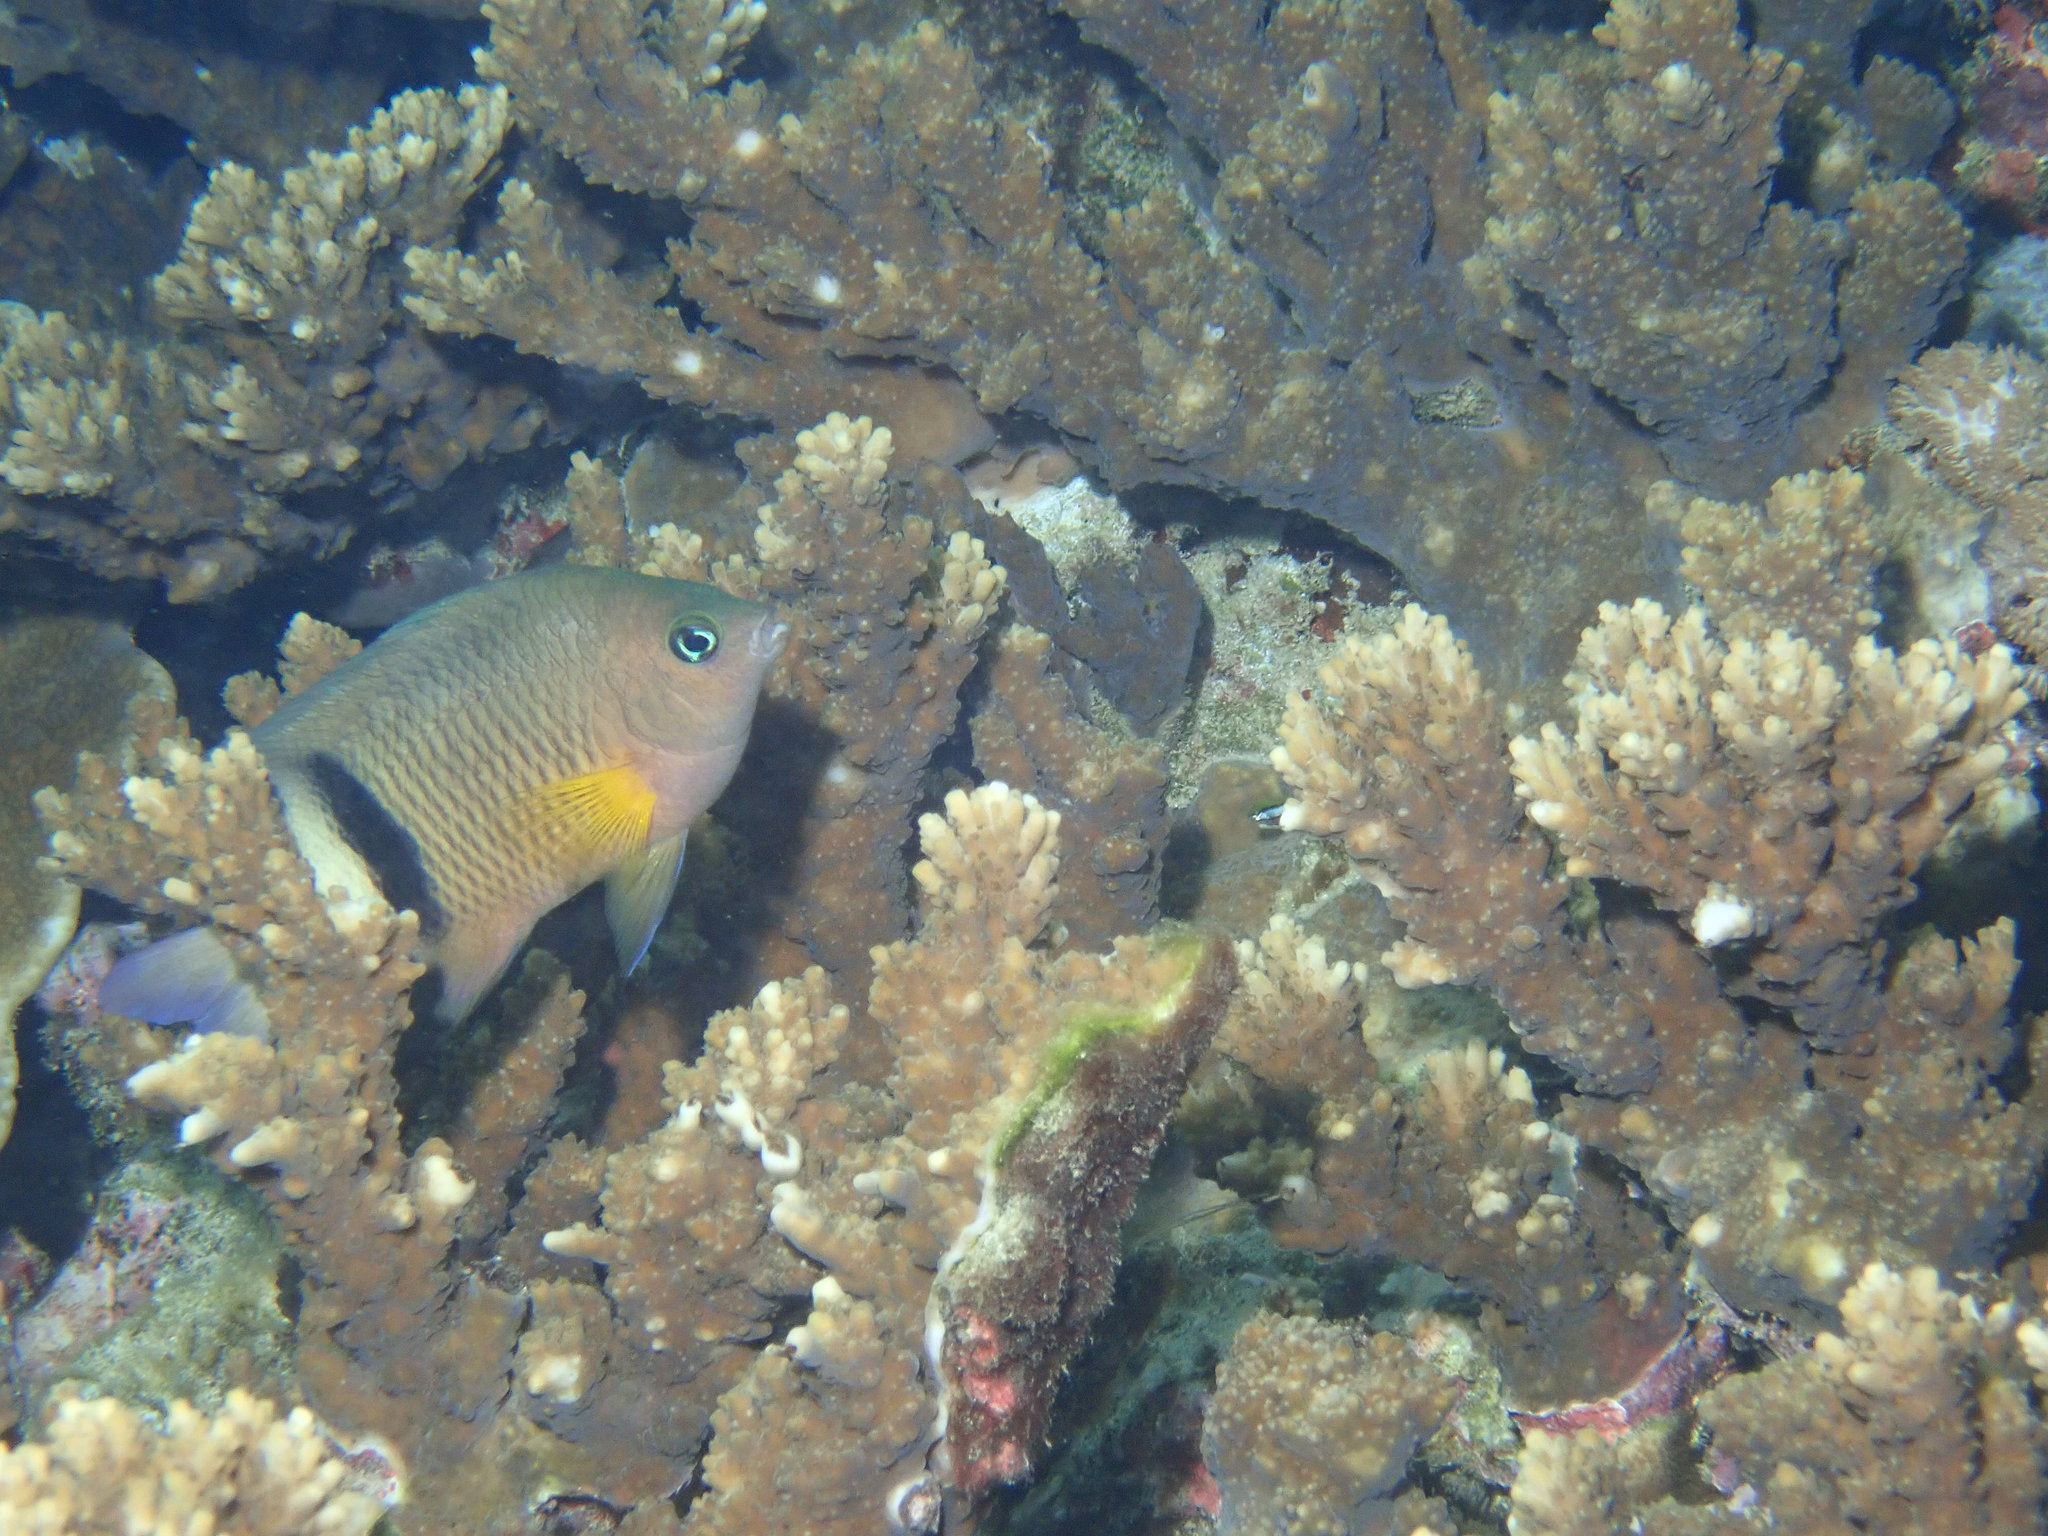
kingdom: Animalia
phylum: Chordata
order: Perciformes
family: Pomacentridae
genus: Plectroglyphidodon
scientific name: Plectroglyphidodon dickii
